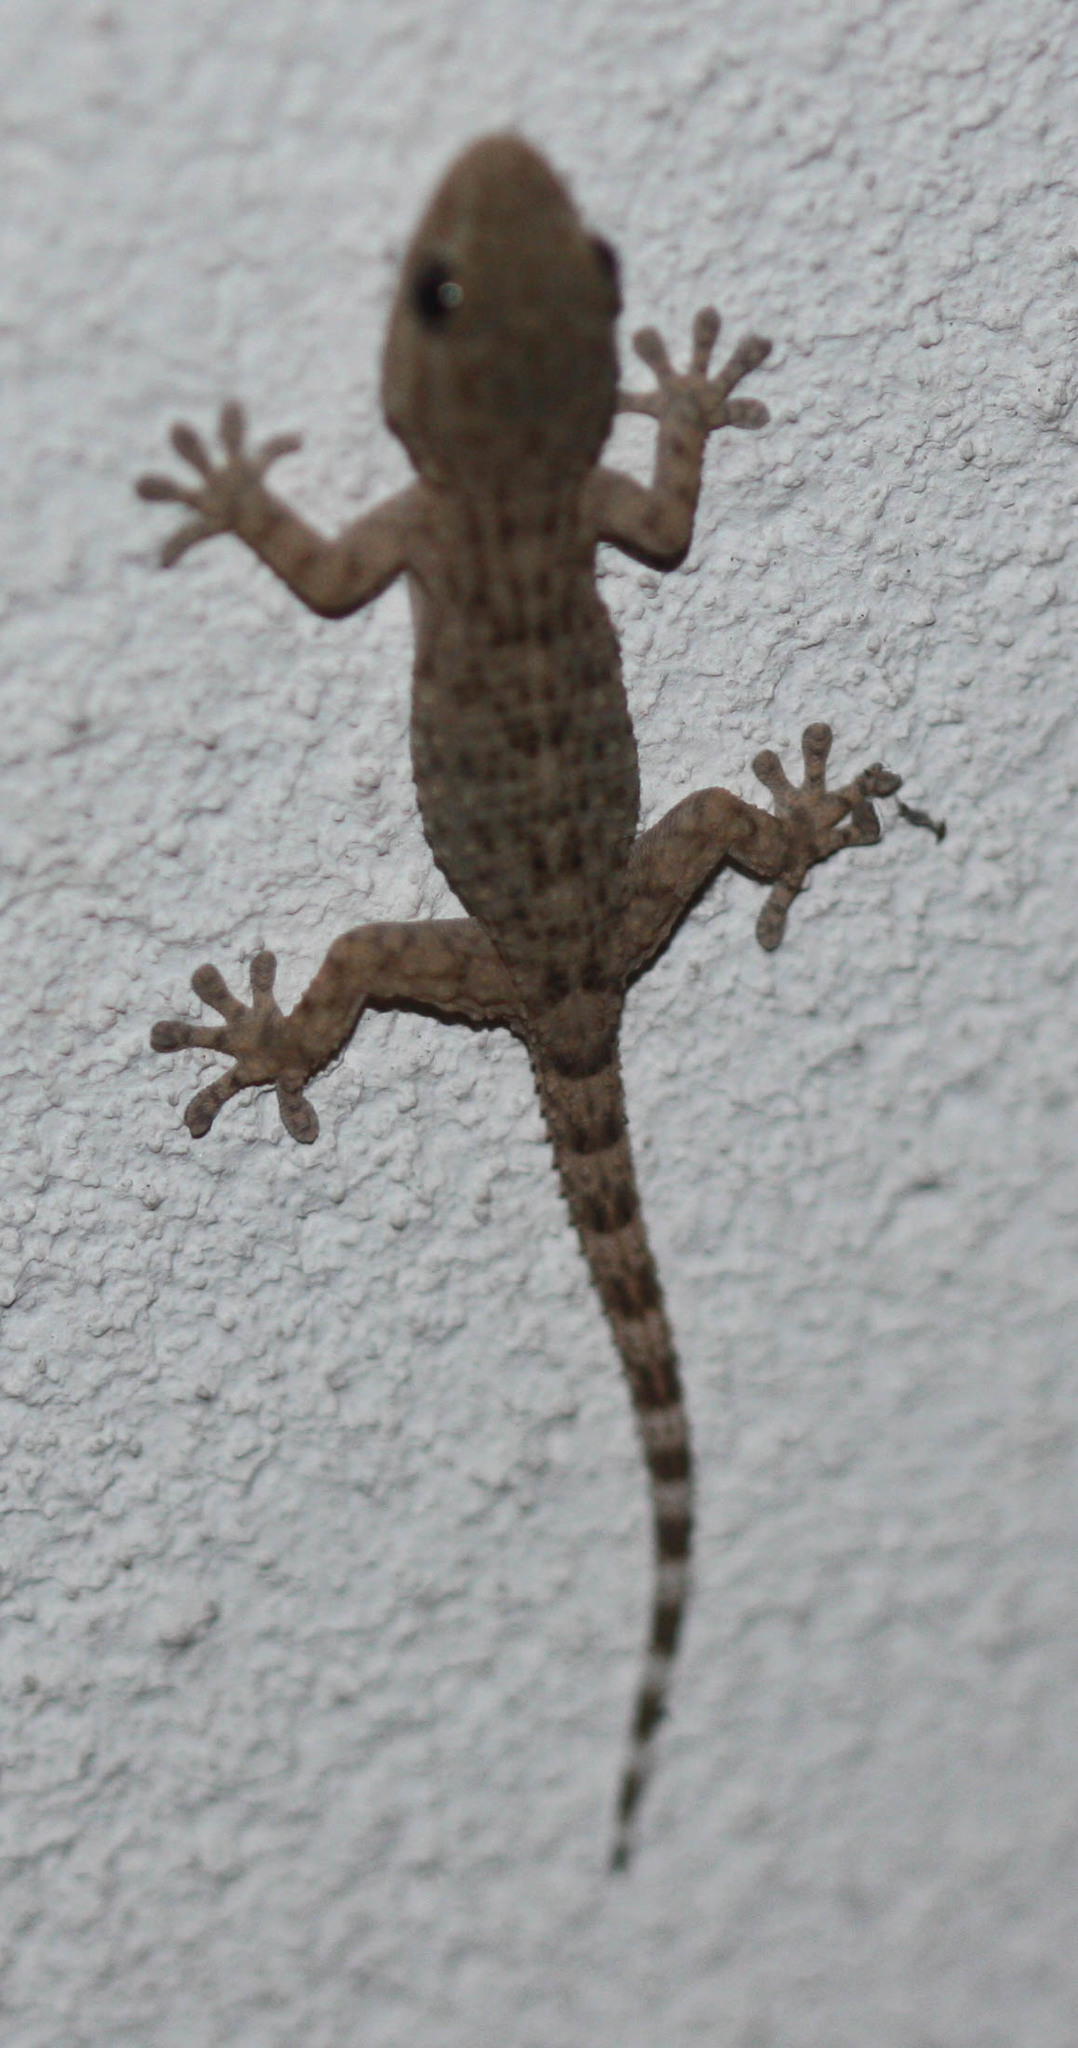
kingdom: Animalia
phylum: Chordata
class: Squamata
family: Phyllodactylidae
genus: Tarentola
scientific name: Tarentola mauritanica
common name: Moorish gecko
